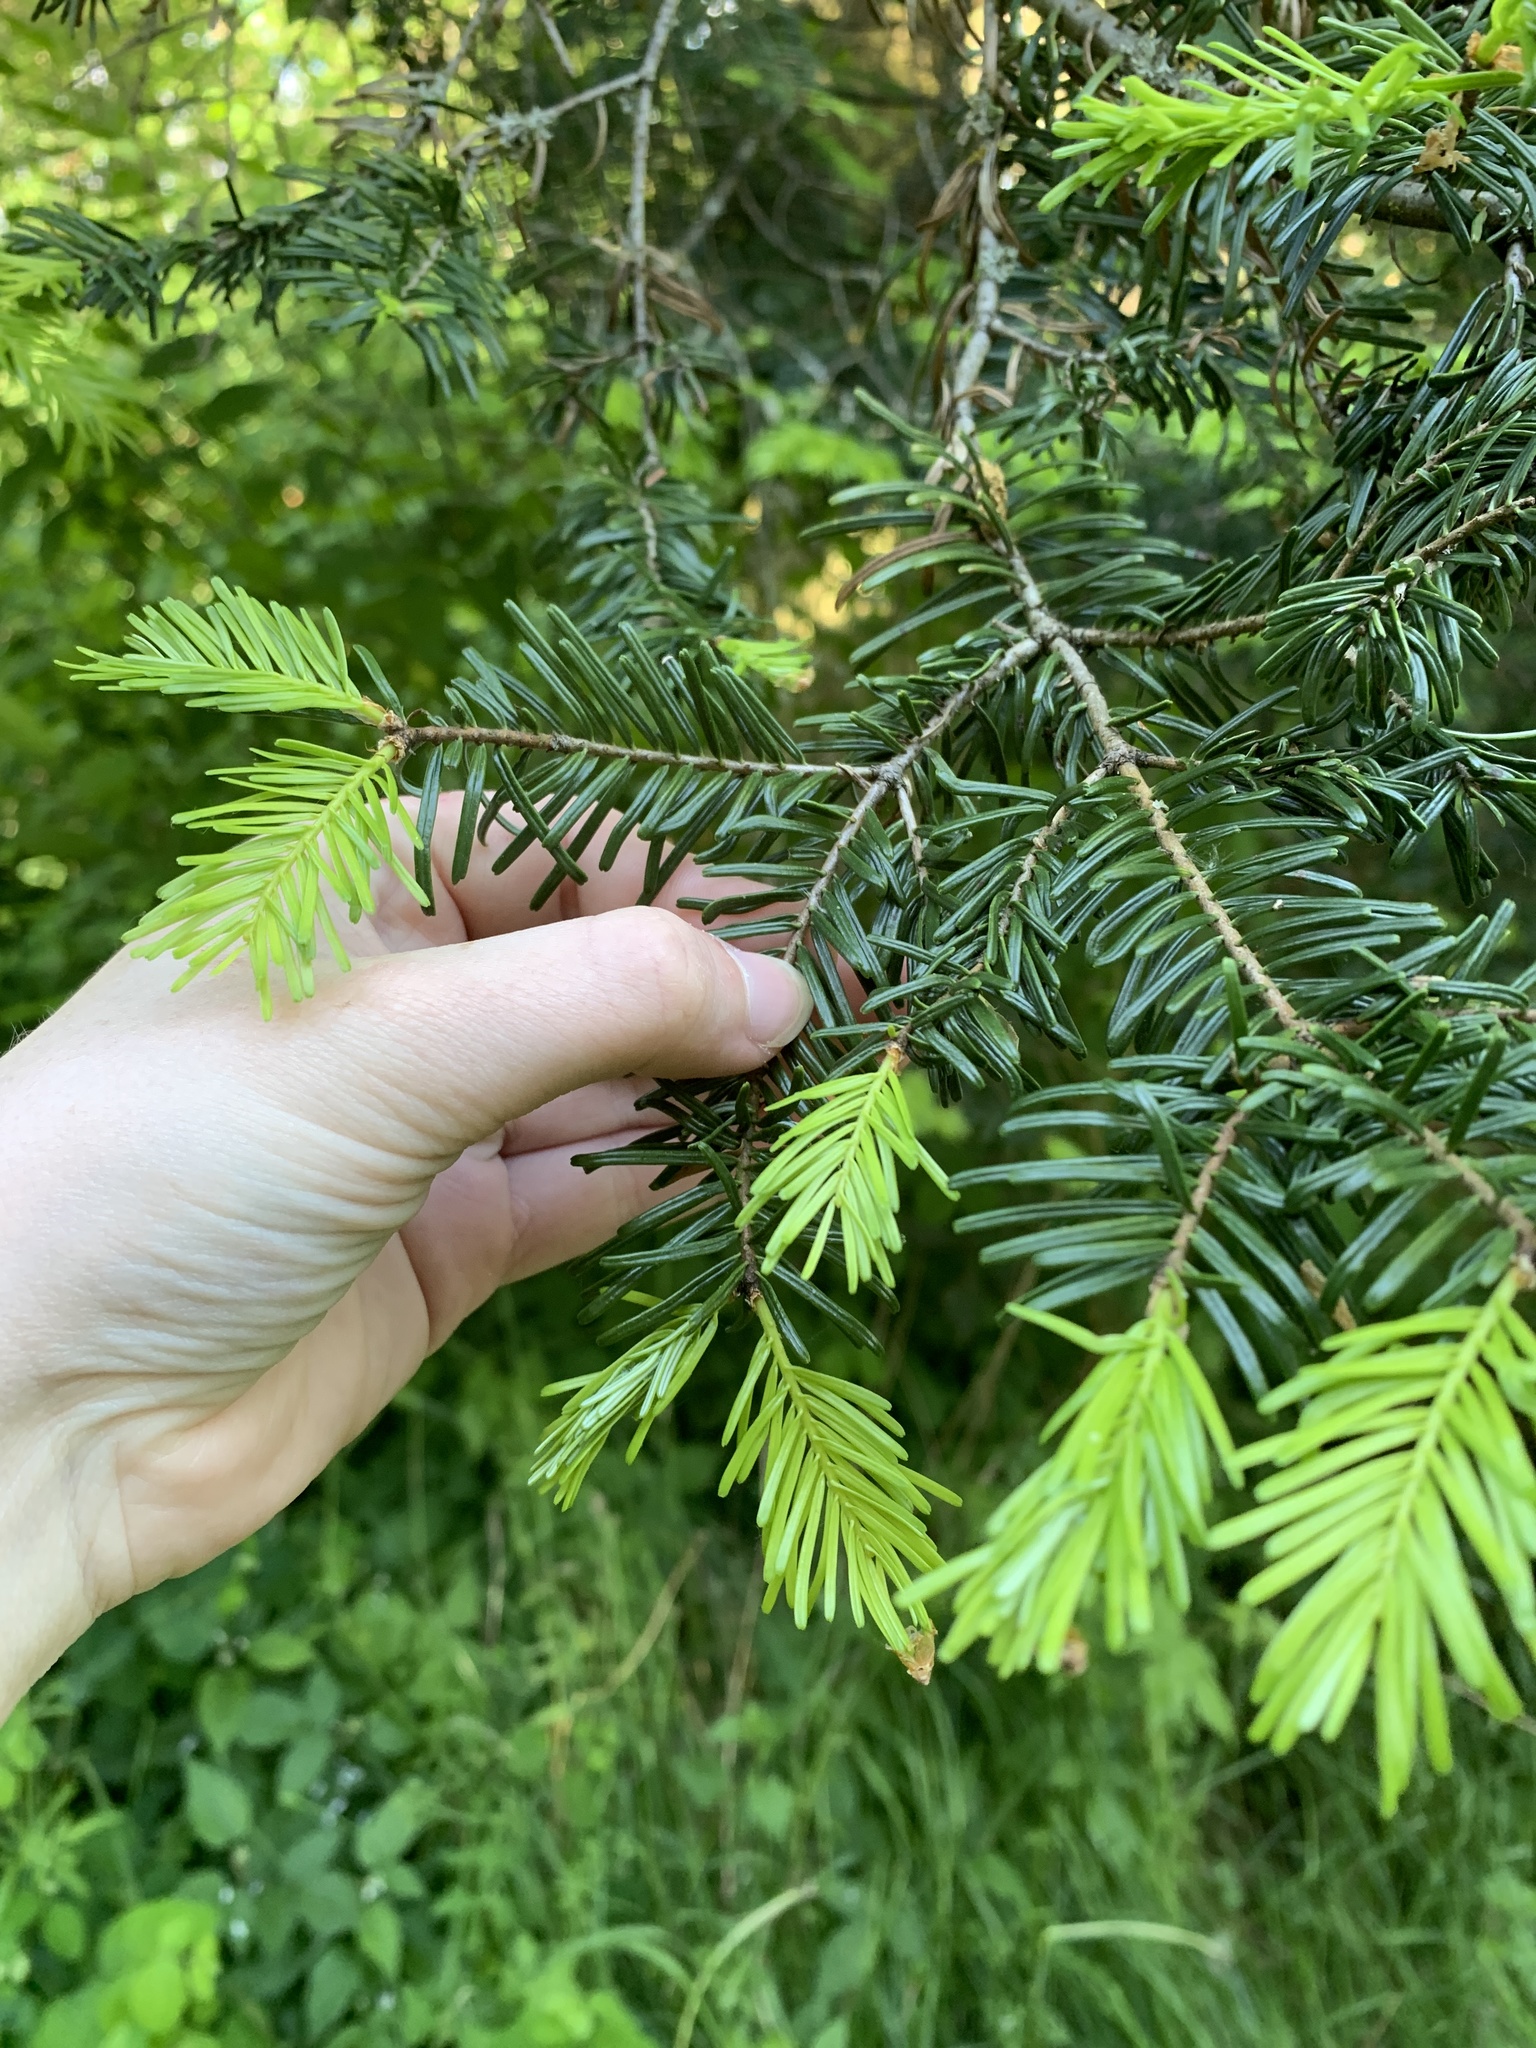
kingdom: Plantae
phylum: Tracheophyta
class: Pinopsida
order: Pinales
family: Pinaceae
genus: Abies
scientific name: Abies grandis
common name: Giant fir
